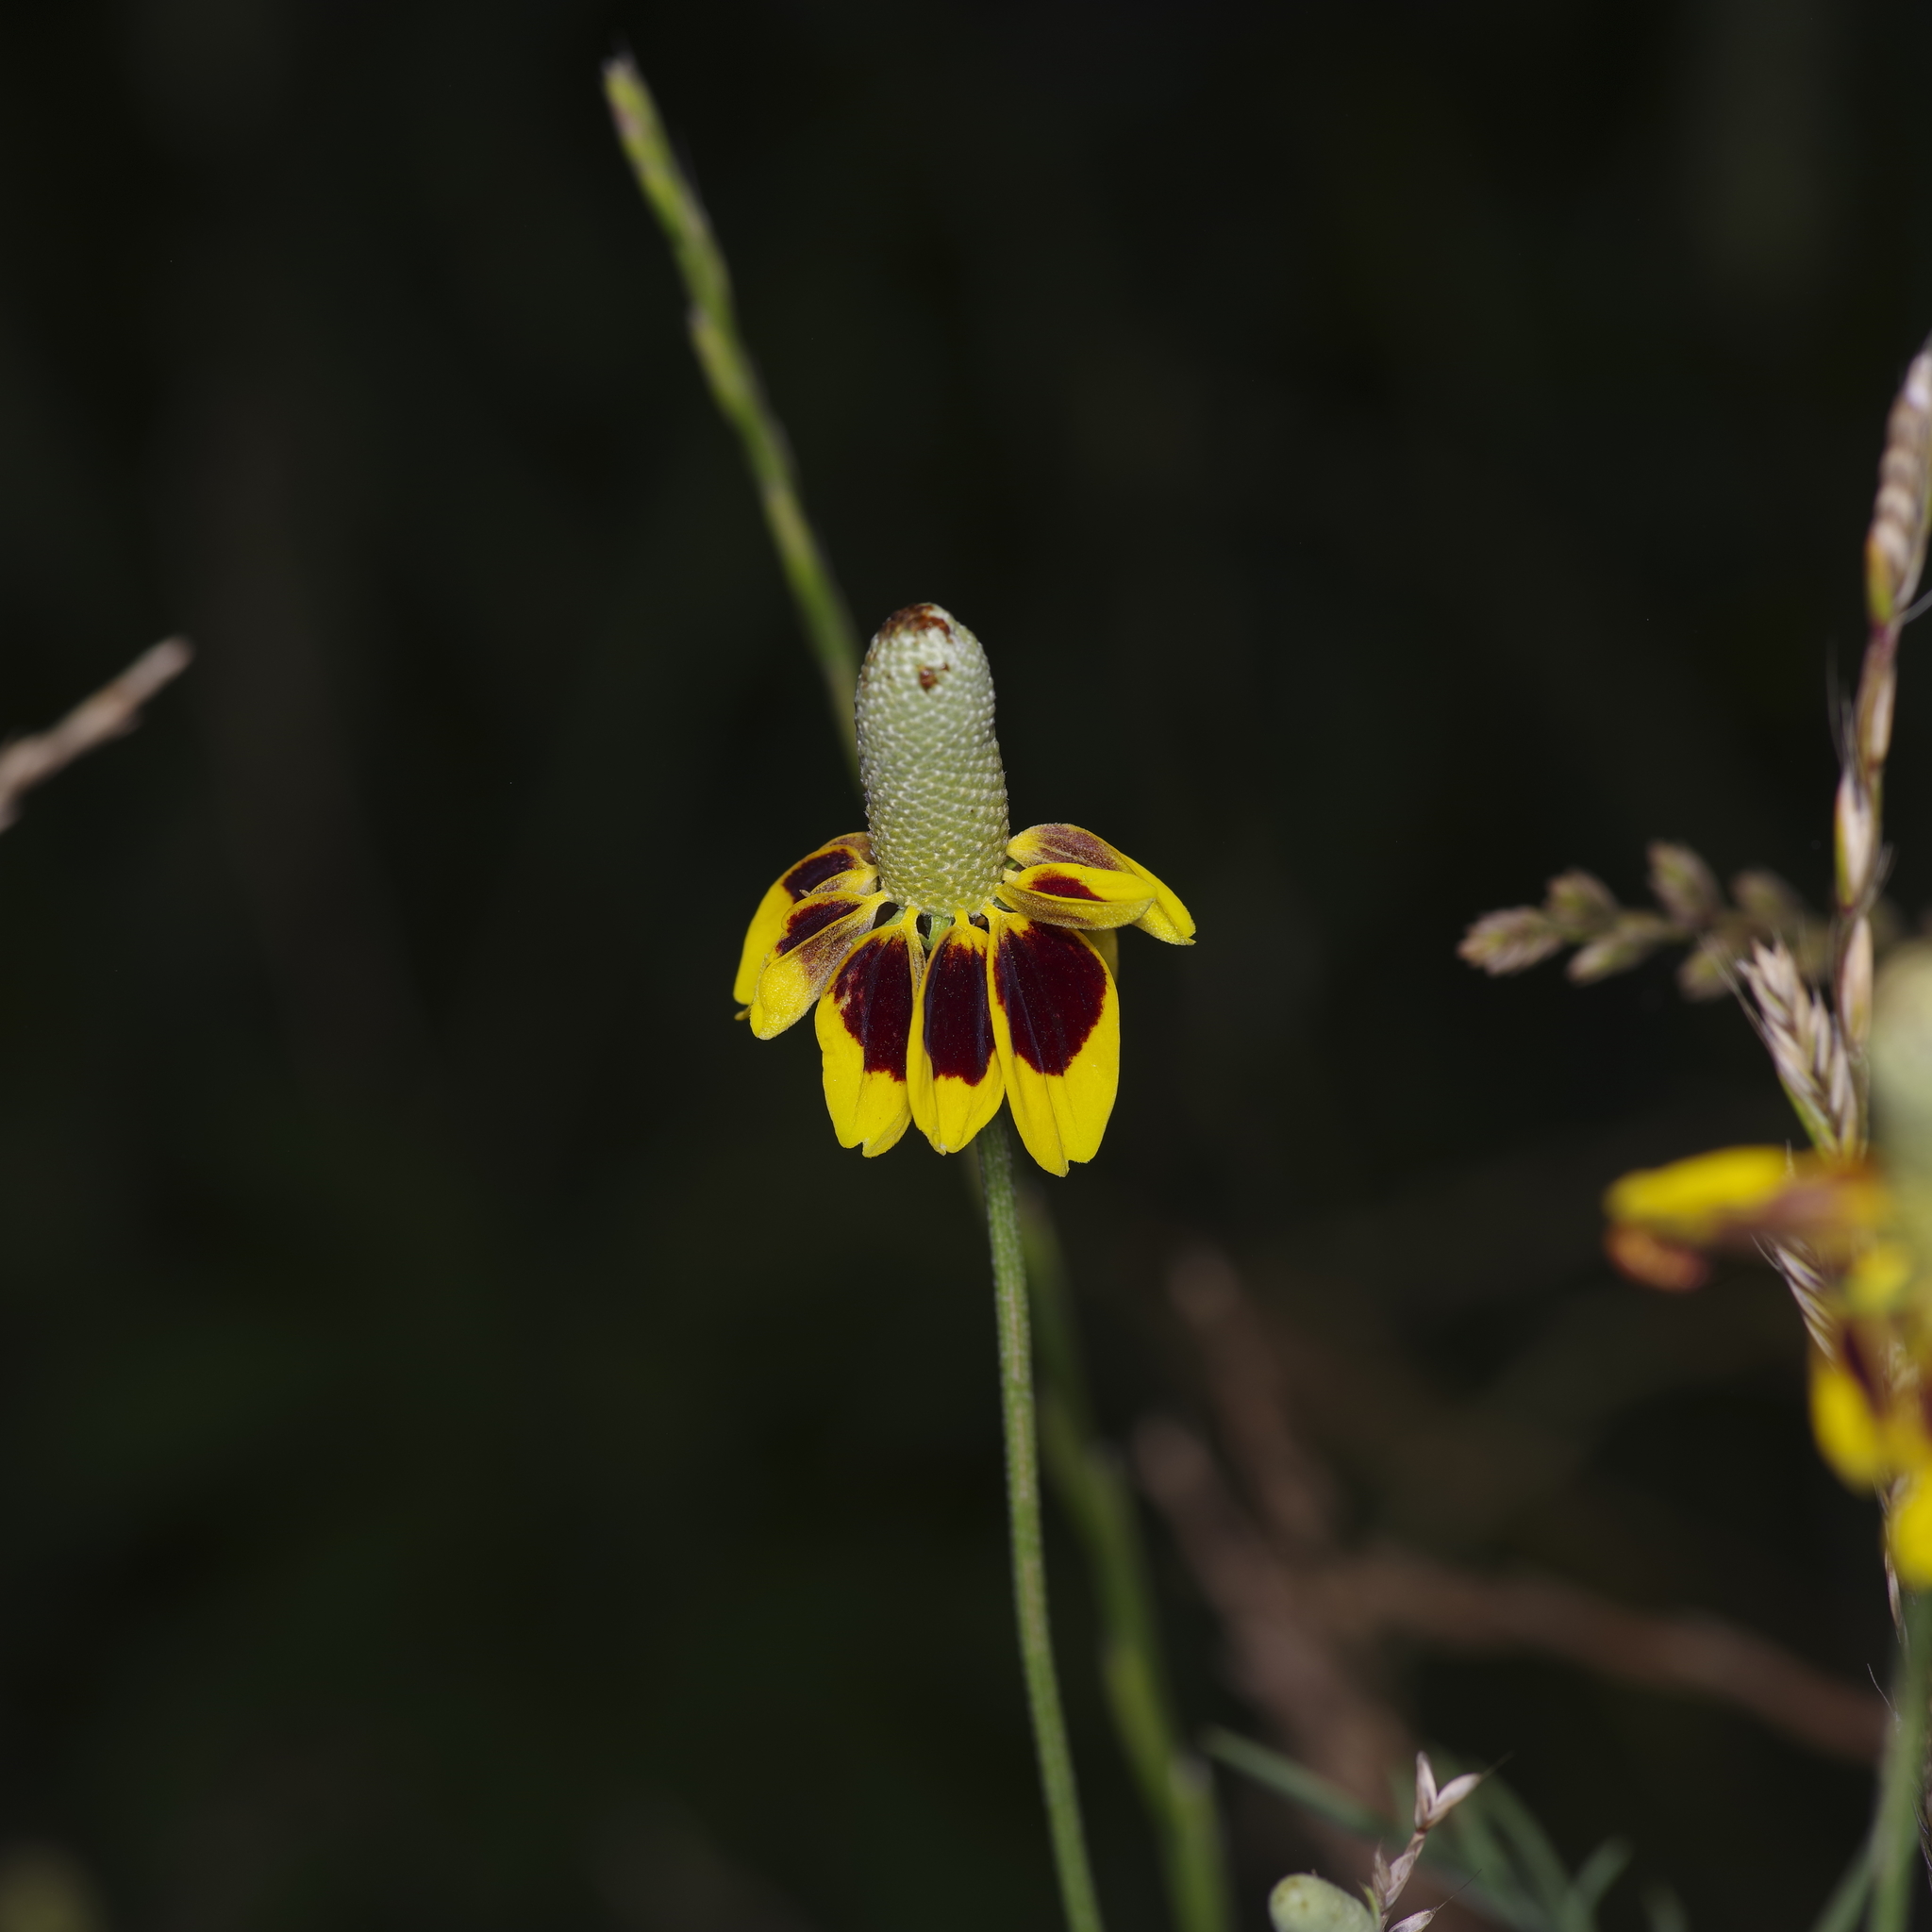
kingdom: Plantae
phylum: Tracheophyta
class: Magnoliopsida
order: Asterales
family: Asteraceae
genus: Ratibida
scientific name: Ratibida columnifera
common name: Prairie coneflower
